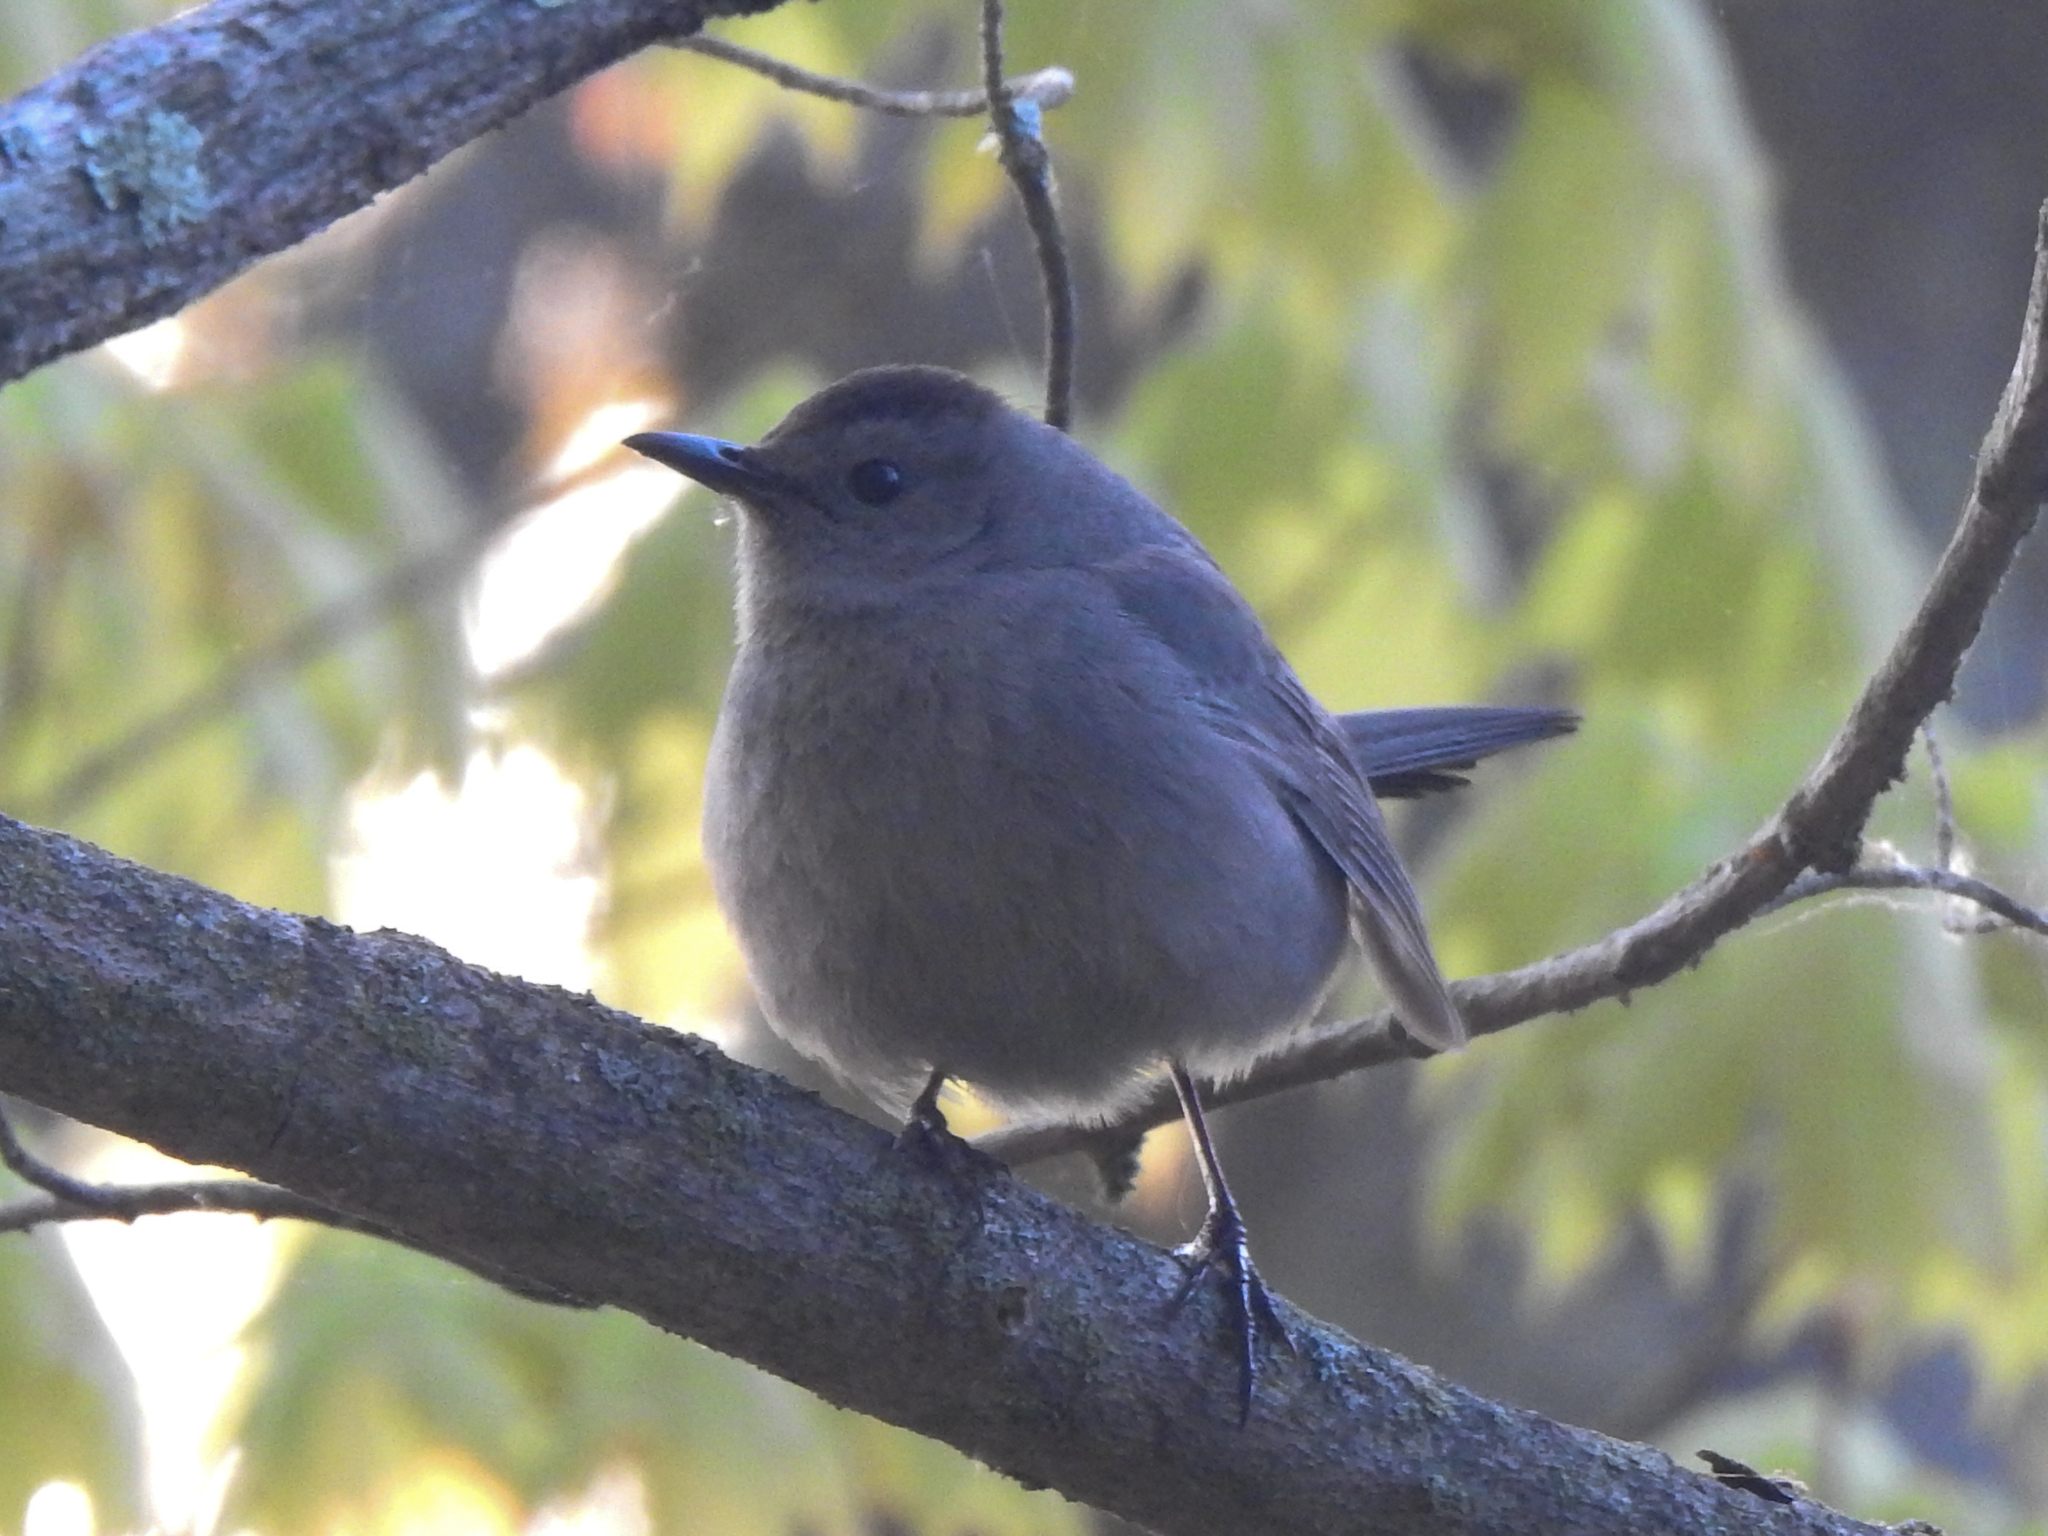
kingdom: Animalia
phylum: Chordata
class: Aves
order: Passeriformes
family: Mimidae
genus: Dumetella
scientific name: Dumetella carolinensis
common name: Gray catbird
